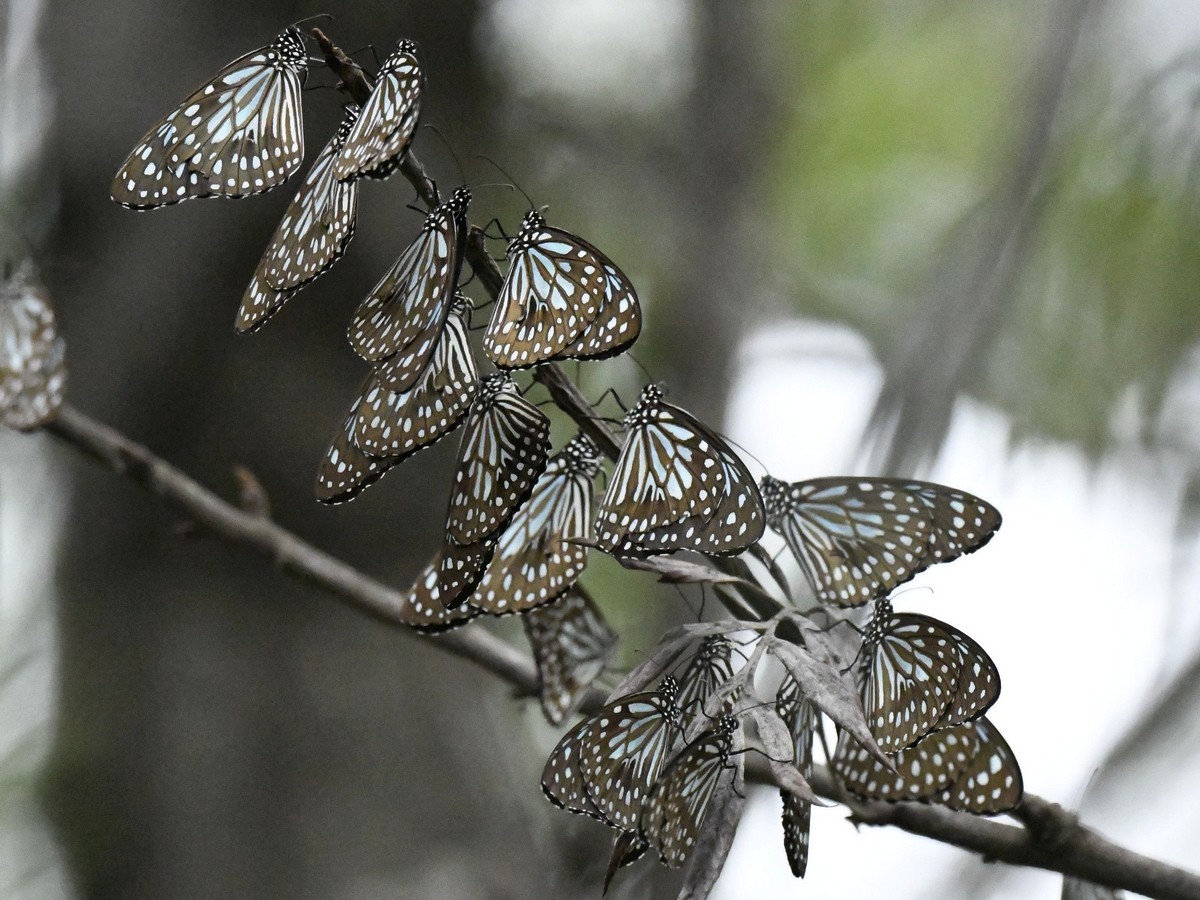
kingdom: Animalia
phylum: Arthropoda
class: Insecta
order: Lepidoptera
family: Nymphalidae
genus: Tirumala
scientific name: Tirumala septentrionis
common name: Dark blue tiger butterfly
